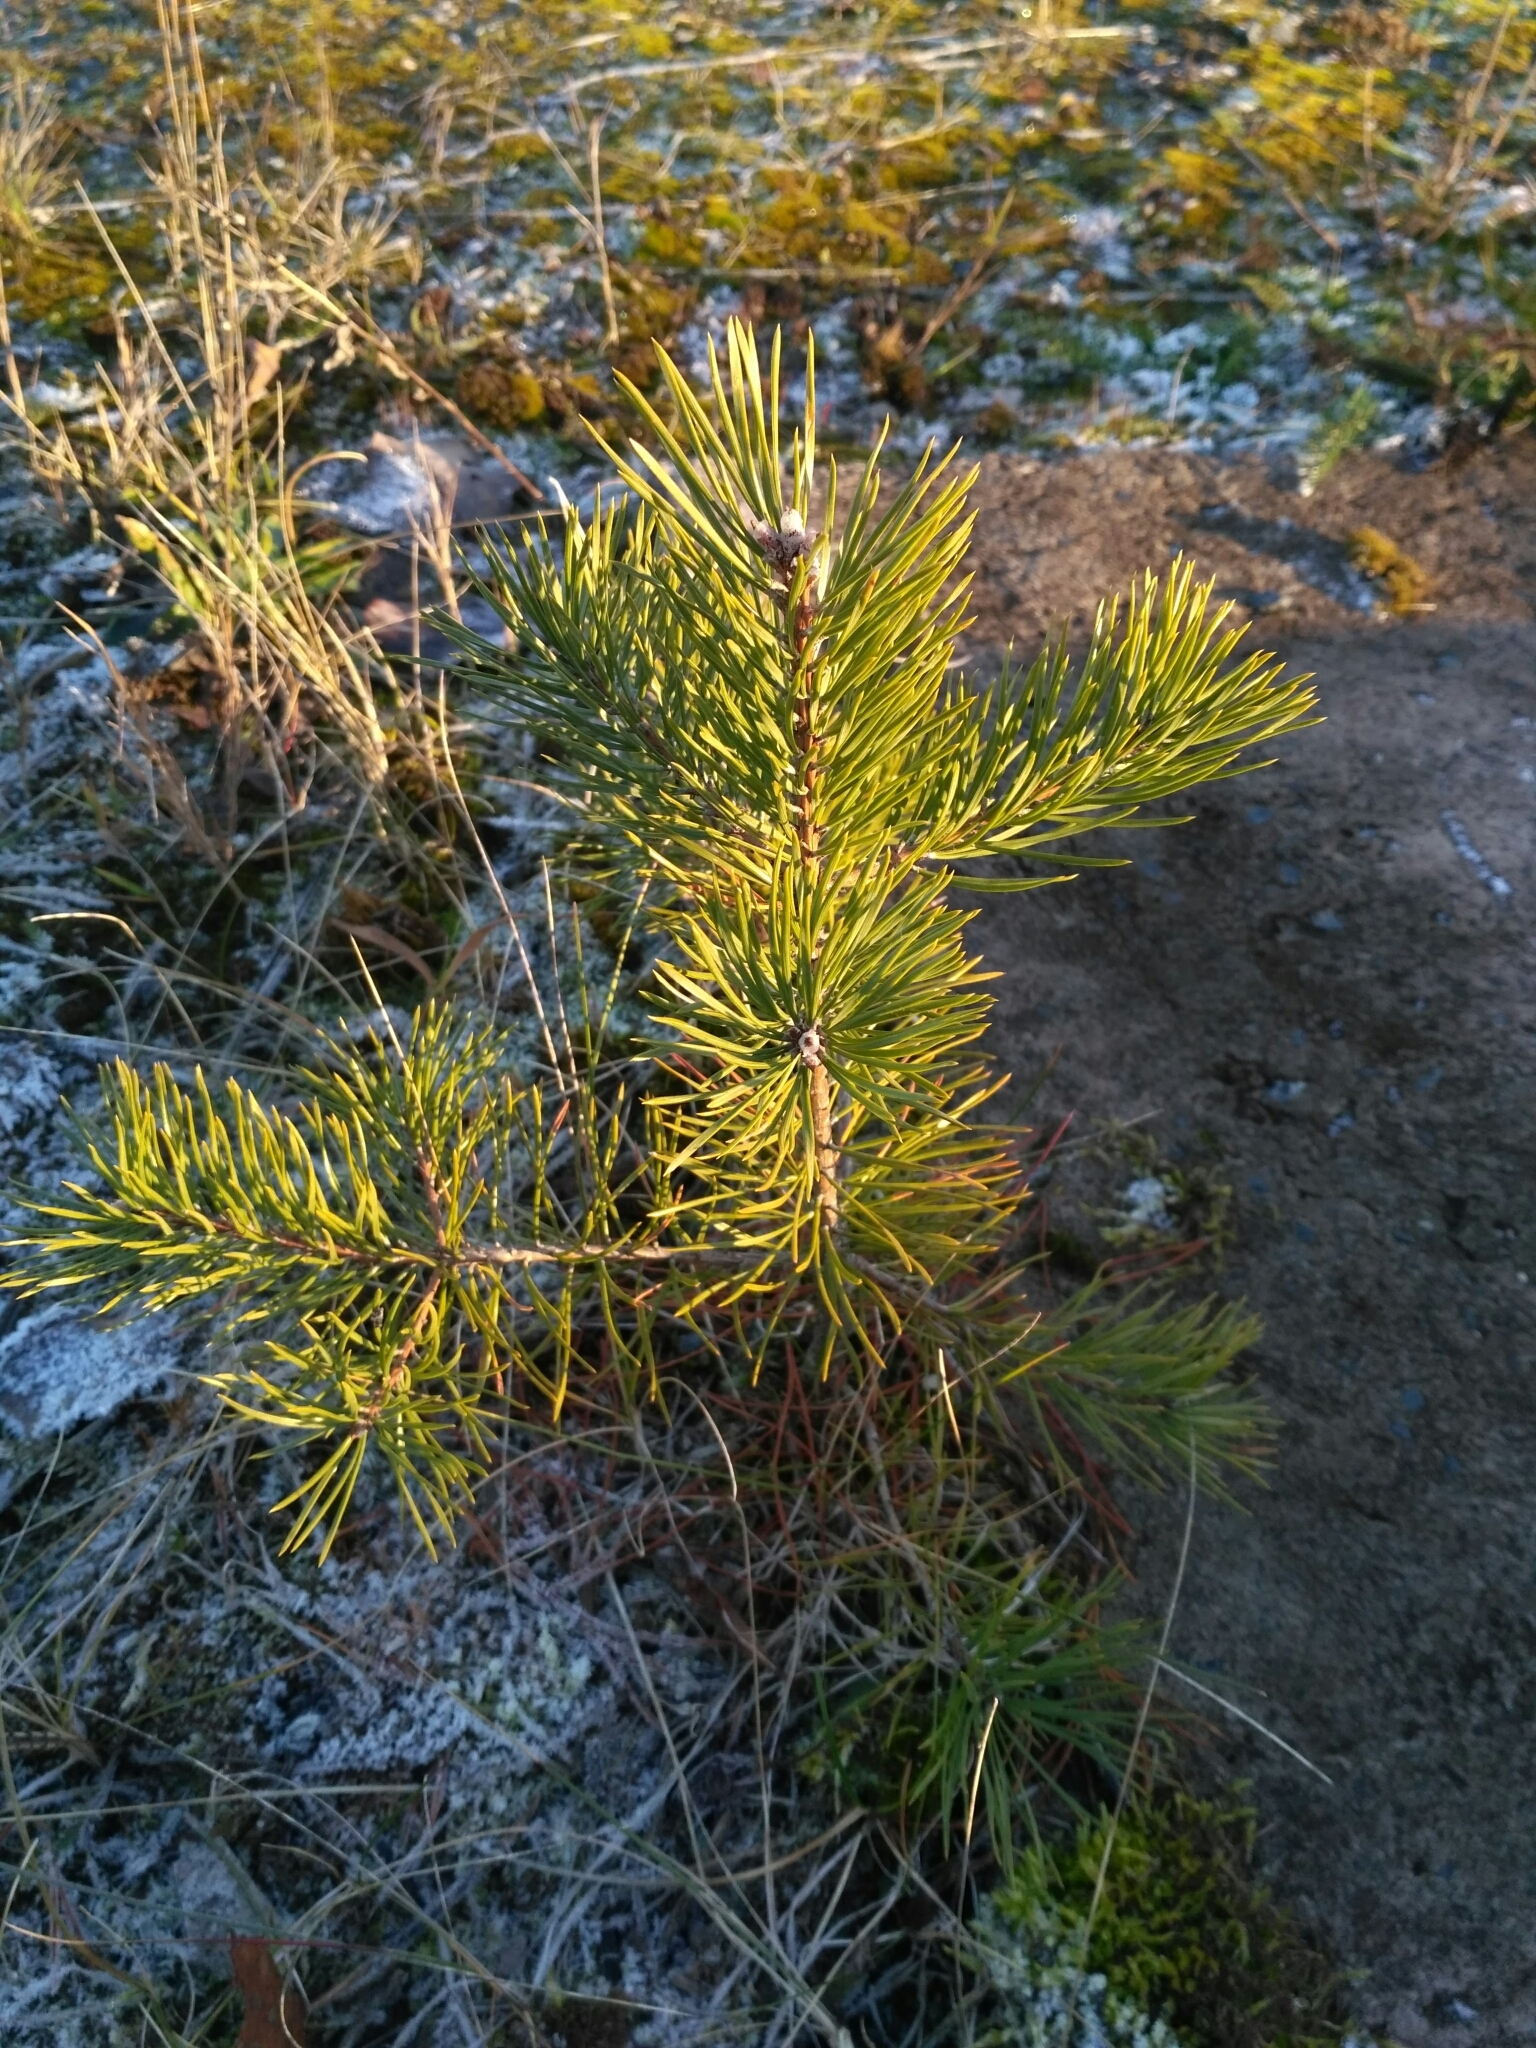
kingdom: Plantae
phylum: Tracheophyta
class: Pinopsida
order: Pinales
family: Pinaceae
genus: Pinus
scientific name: Pinus sylvestris
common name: Scots pine
